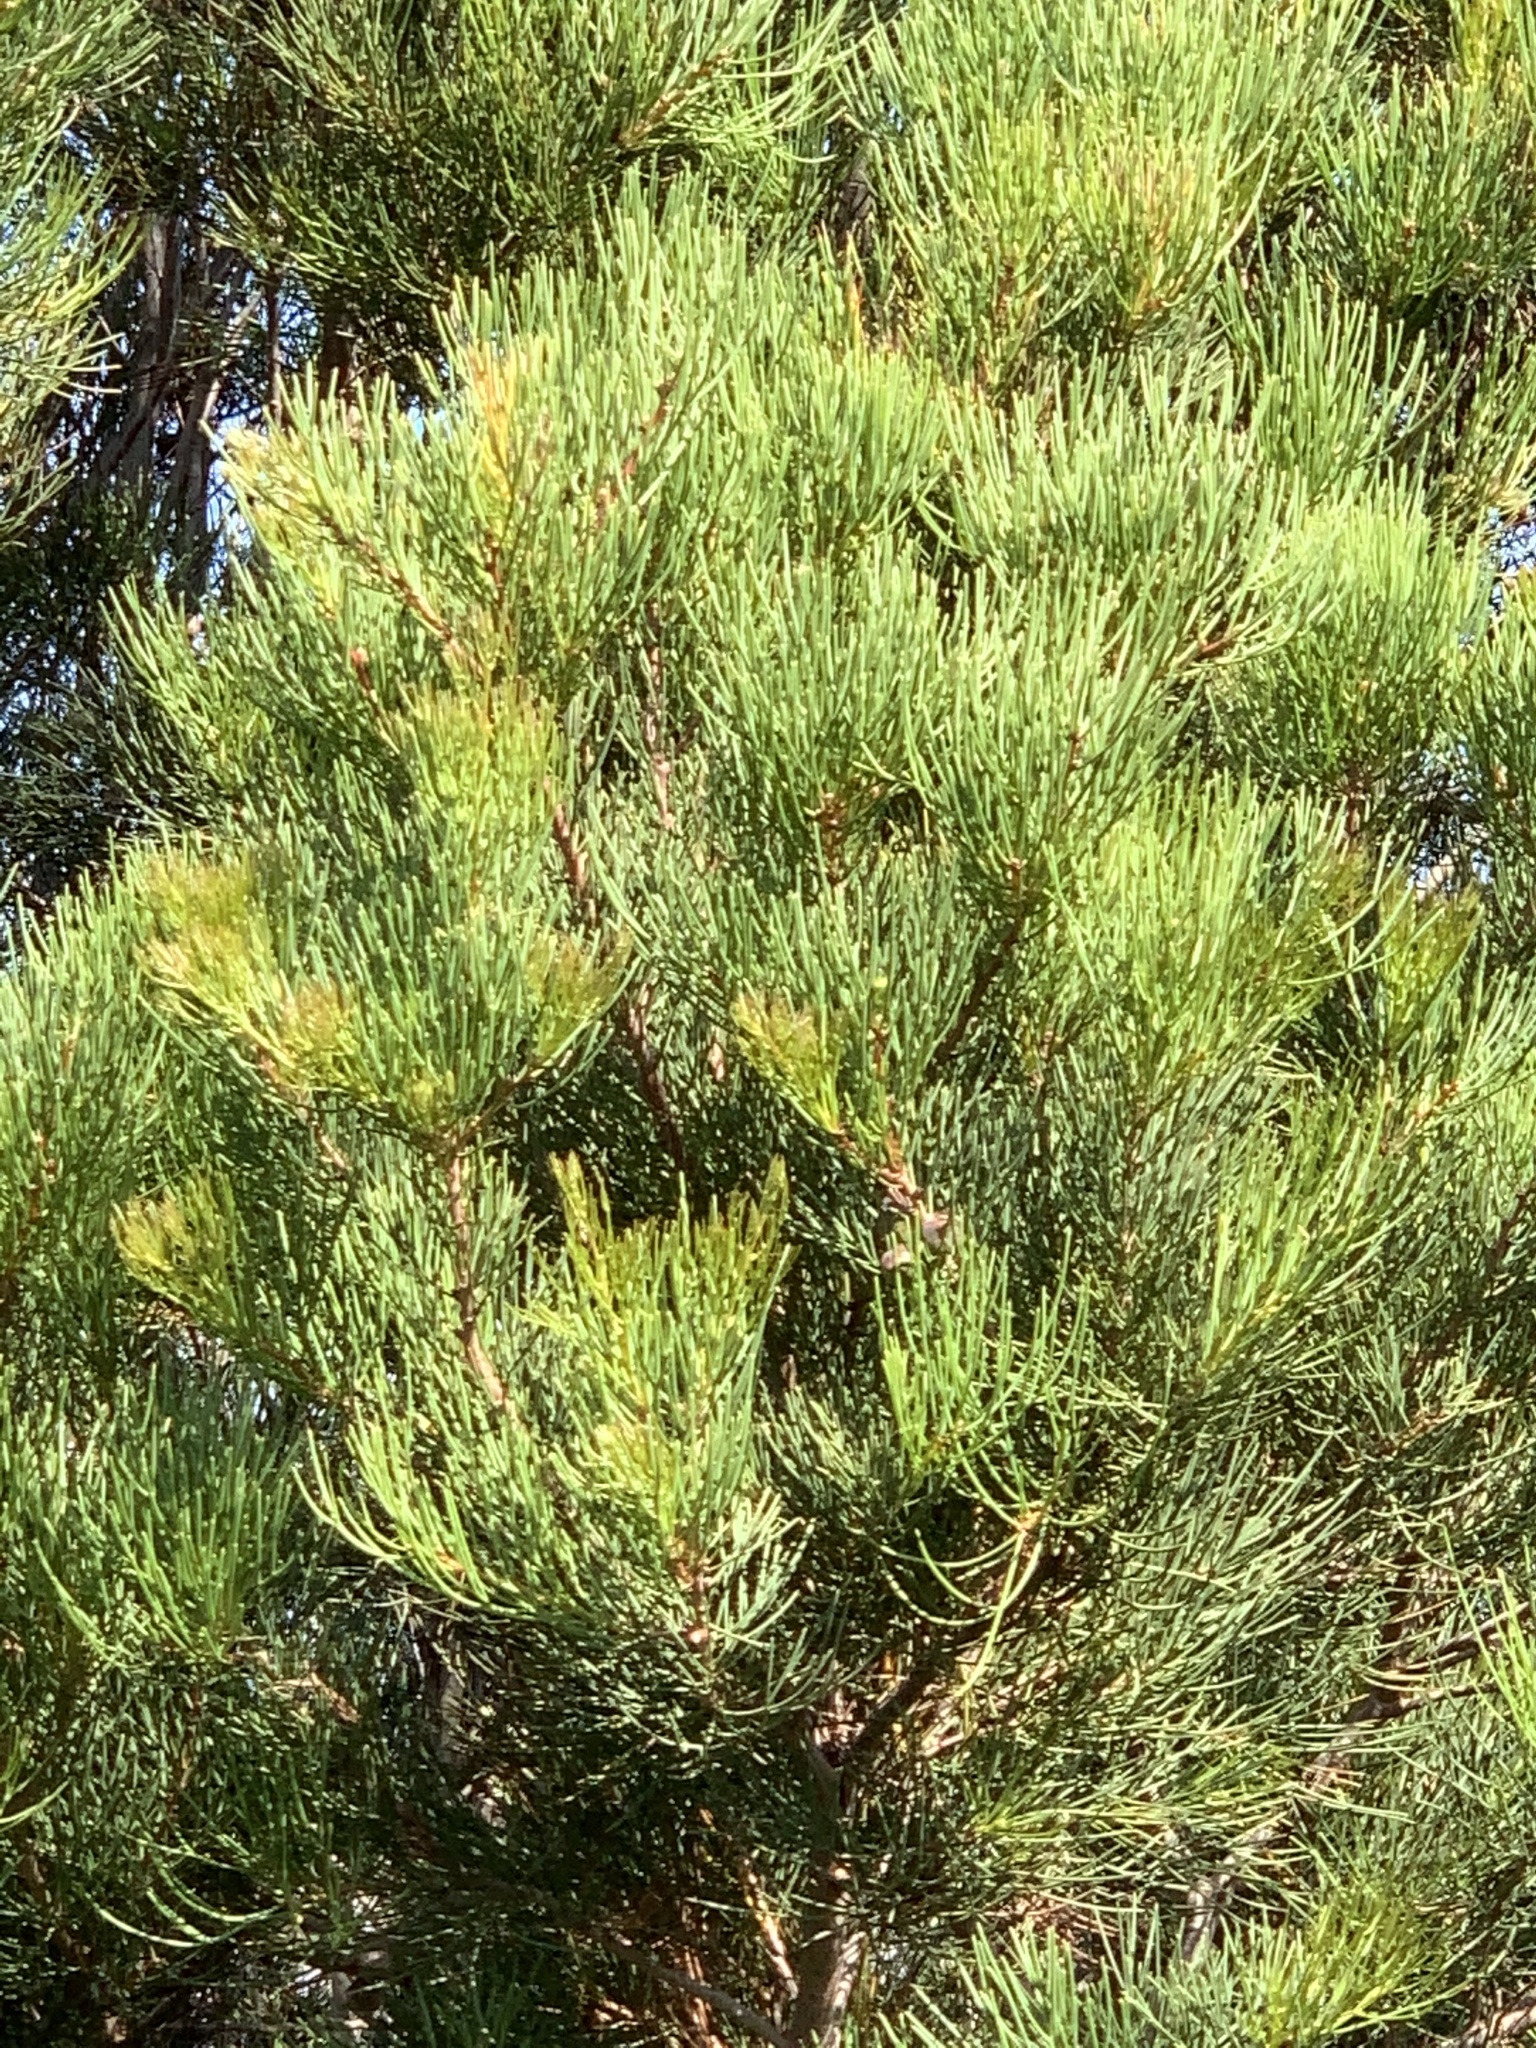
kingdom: Plantae
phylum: Tracheophyta
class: Magnoliopsida
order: Proteales
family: Proteaceae
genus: Hakea
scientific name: Hakea drupacea
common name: Sweet hakea
